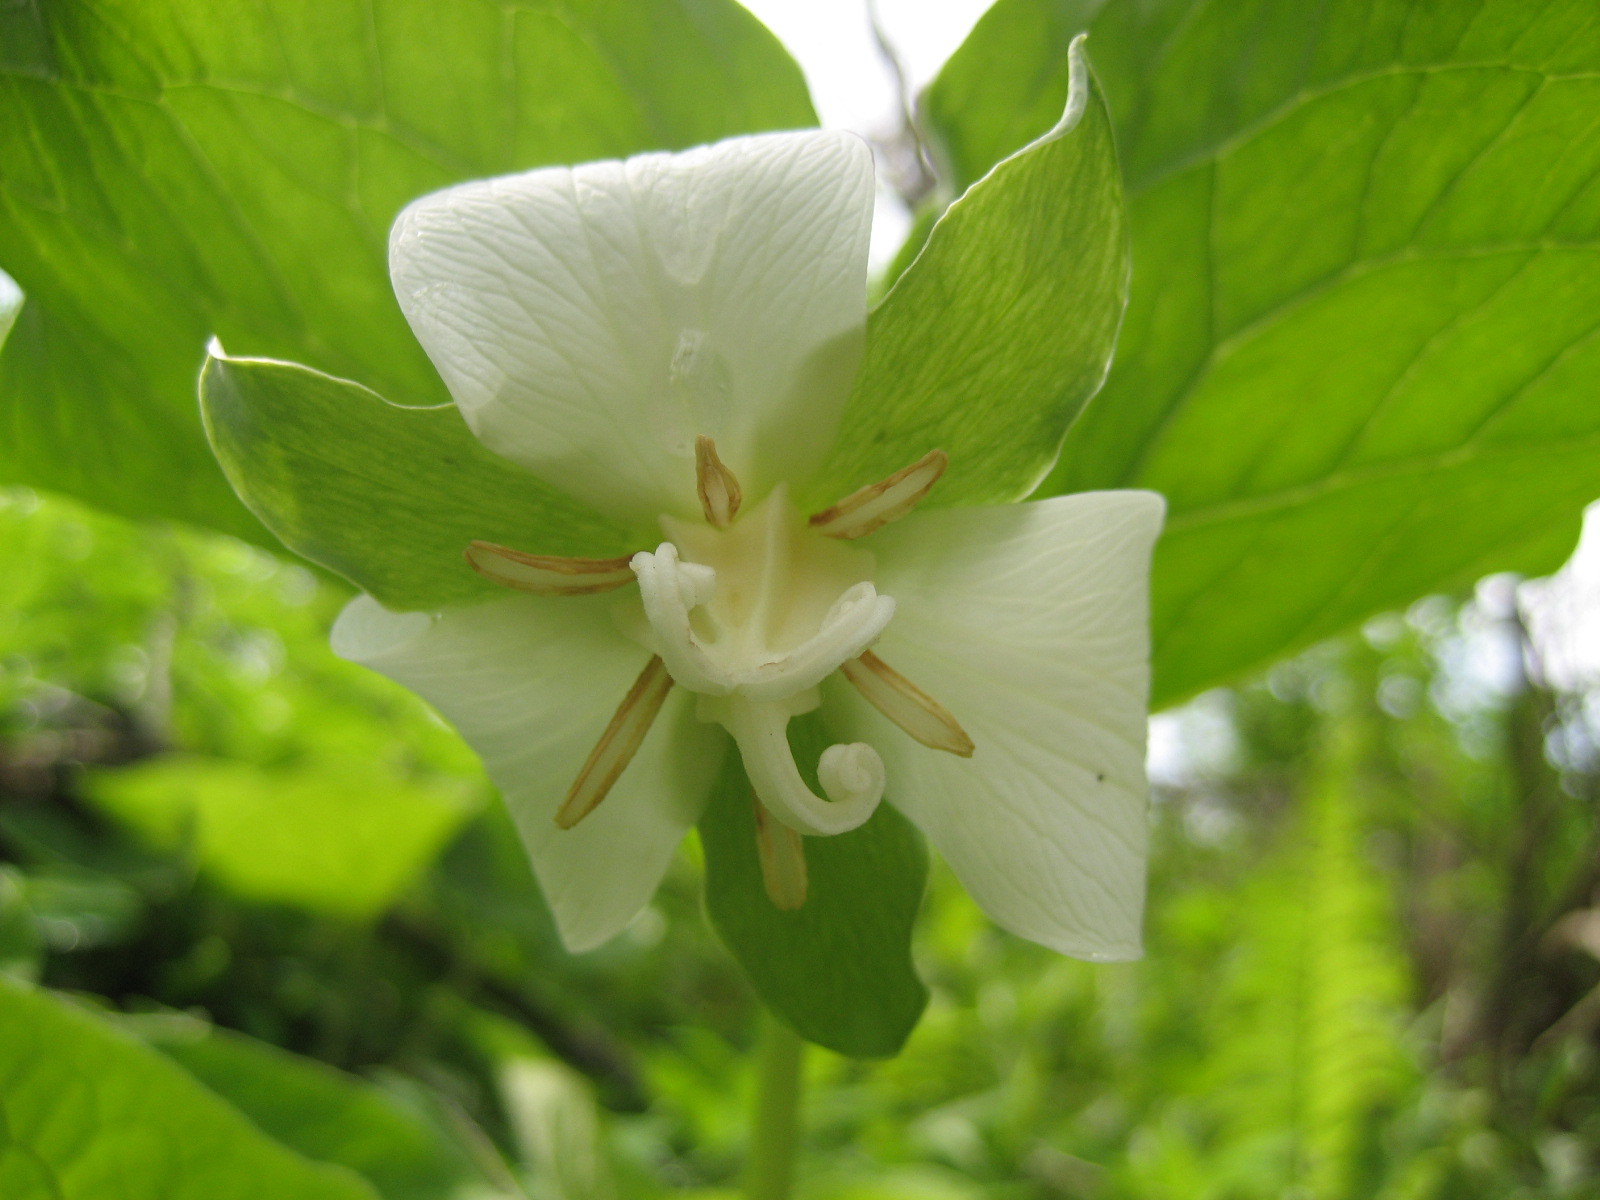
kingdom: Plantae
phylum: Tracheophyta
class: Liliopsida
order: Liliales
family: Melanthiaceae
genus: Trillium
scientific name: Trillium flexipes
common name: Drooping trillium
